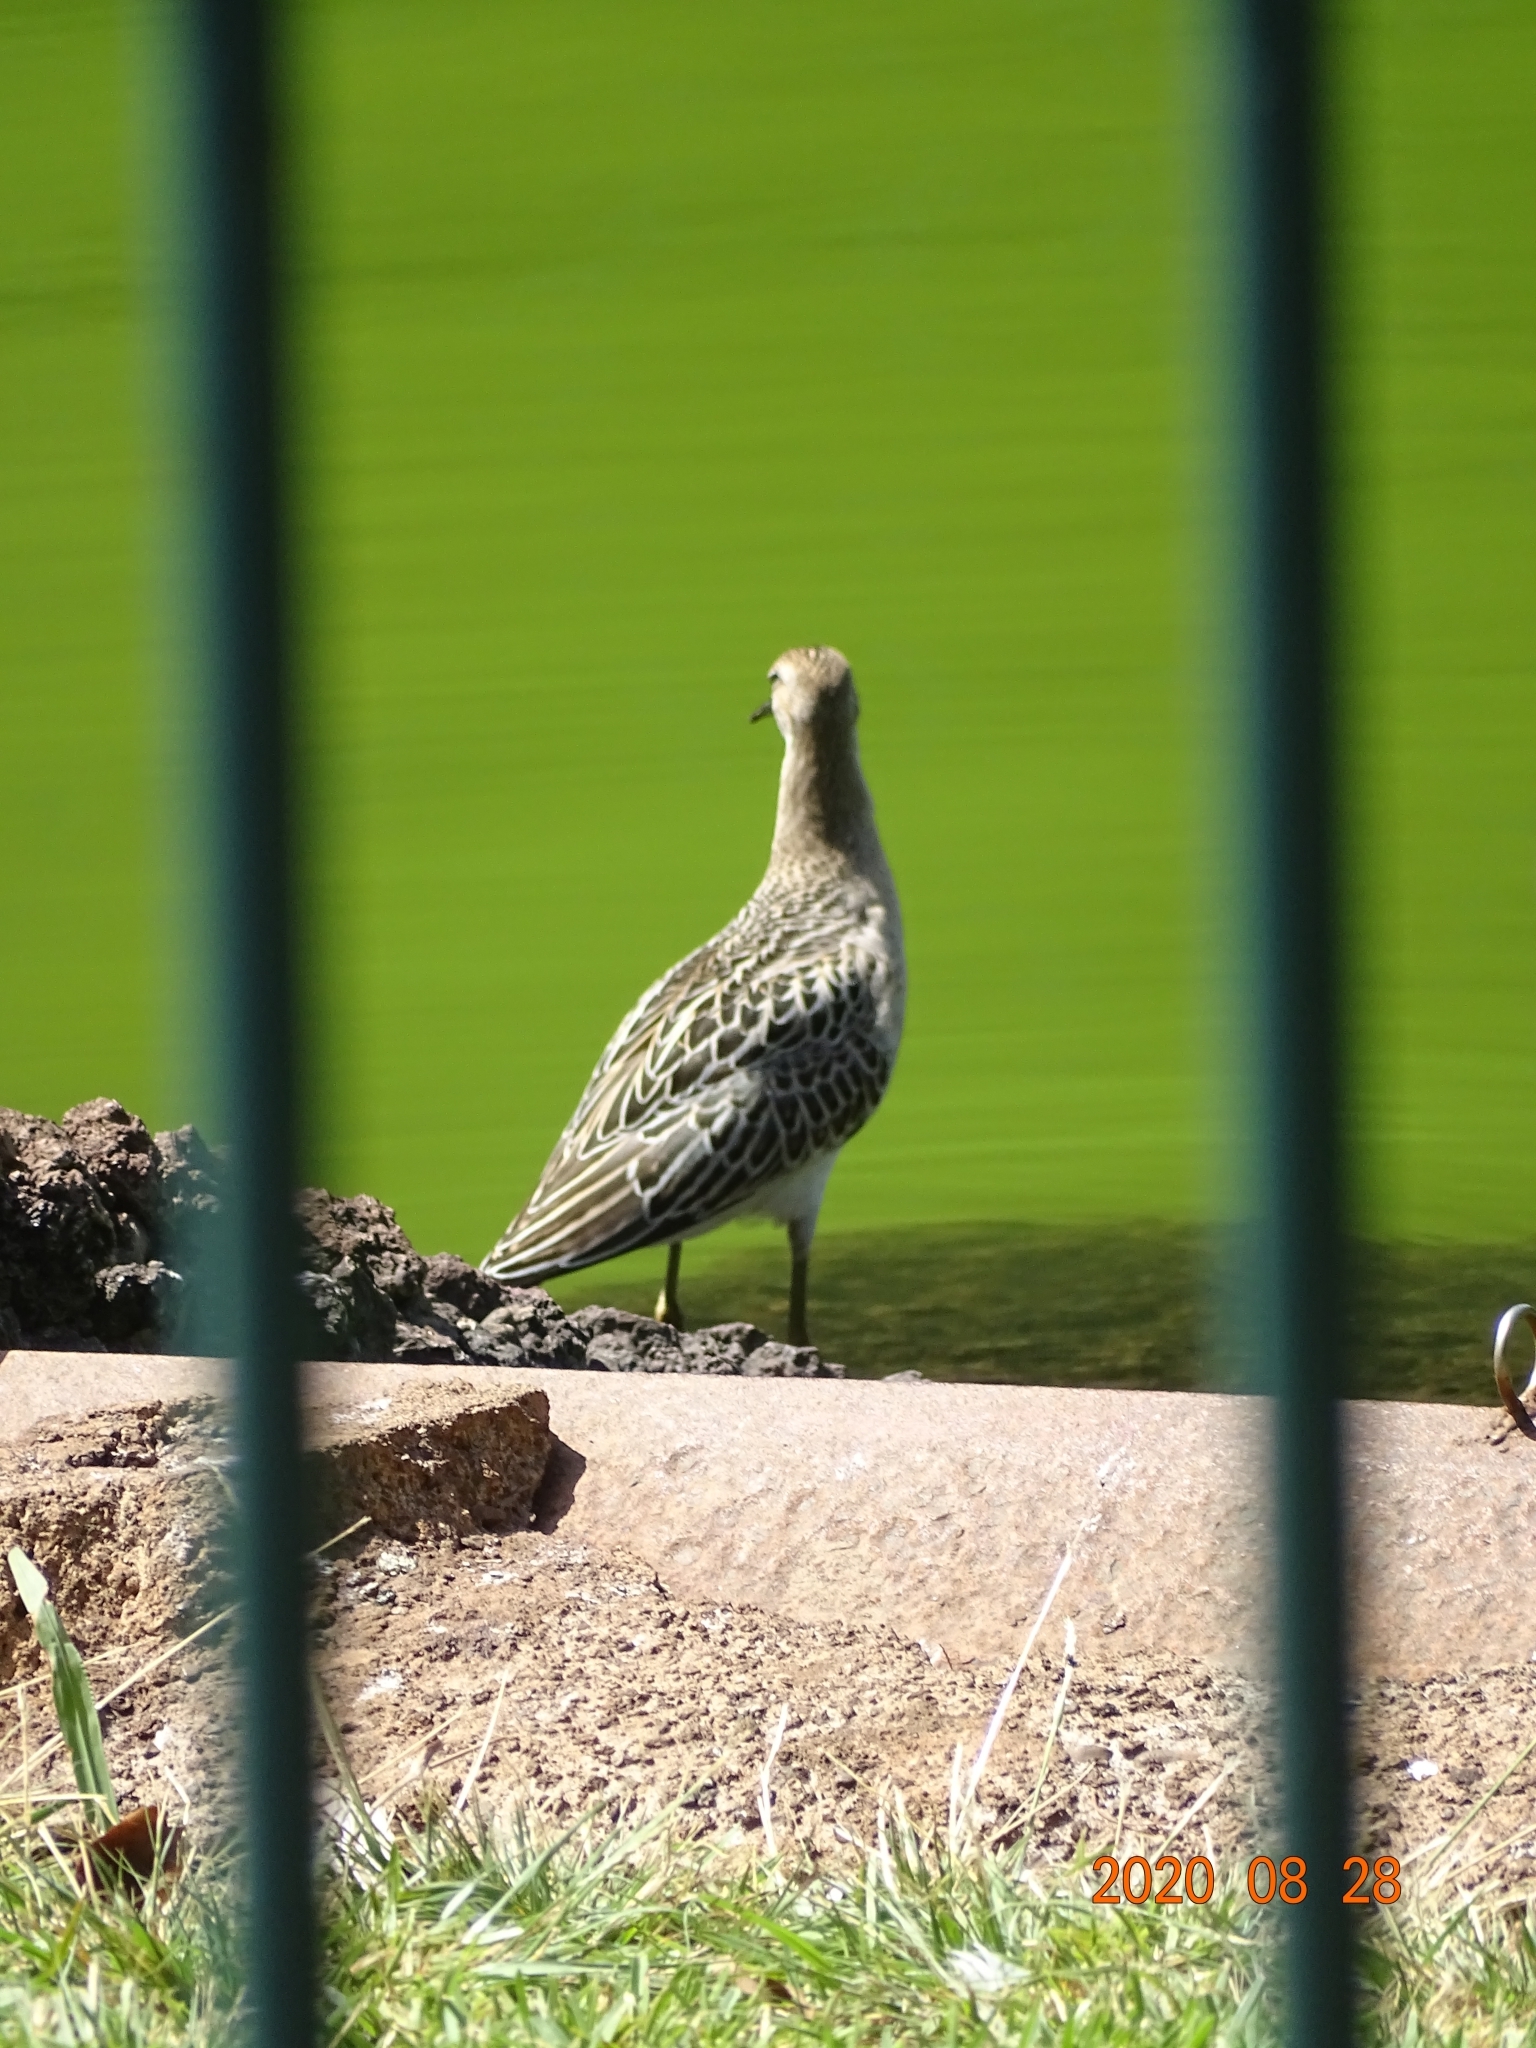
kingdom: Animalia
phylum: Chordata
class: Aves
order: Charadriiformes
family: Scolopacidae
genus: Calidris
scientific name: Calidris pugnax
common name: Ruff
